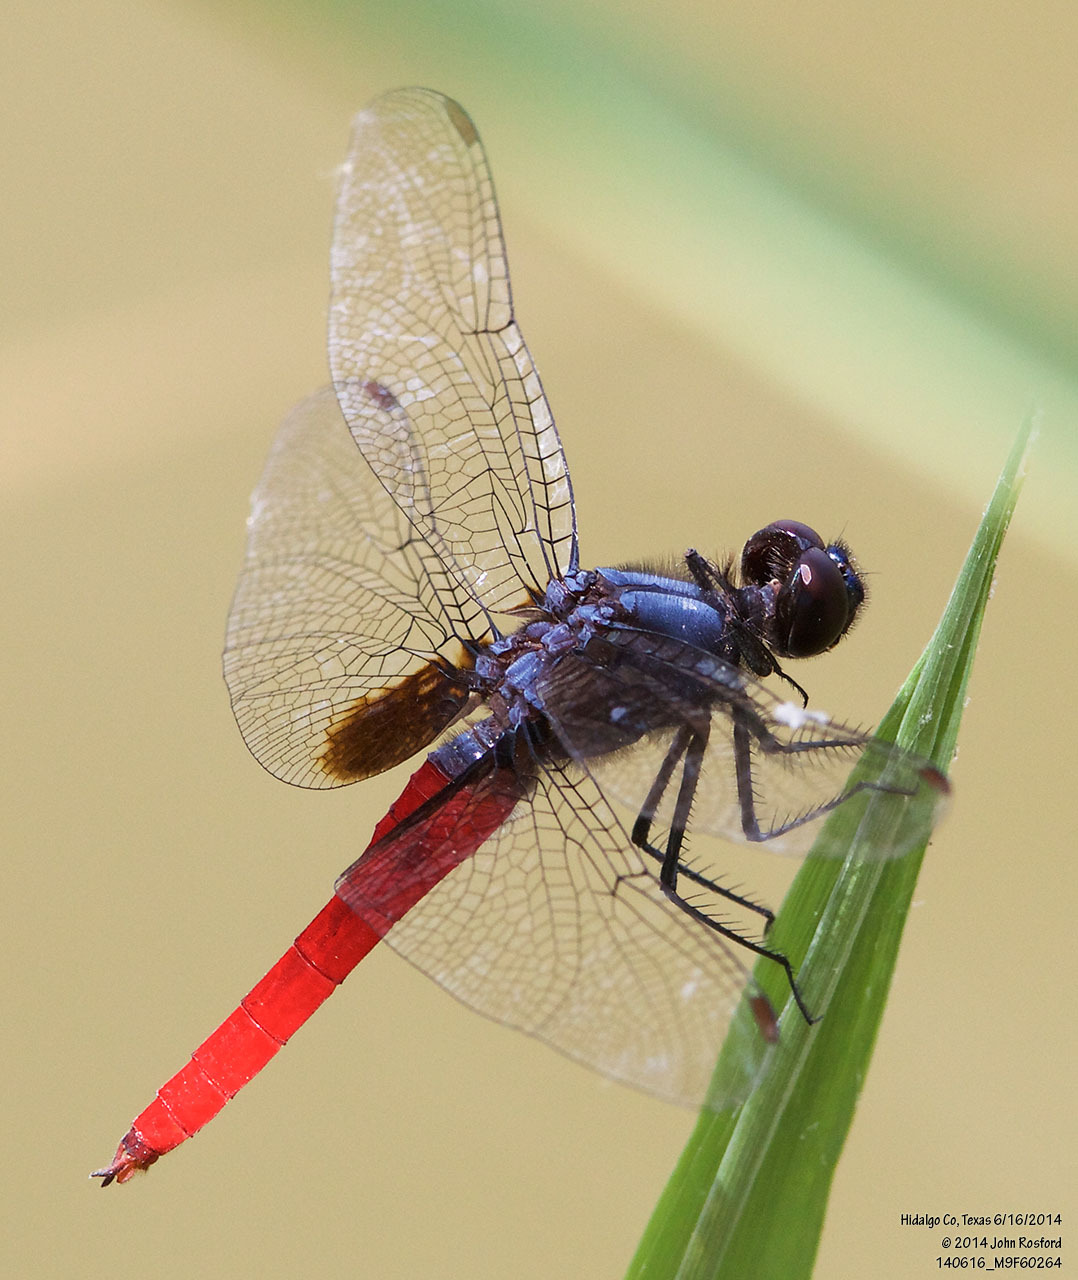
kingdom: Animalia
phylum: Arthropoda
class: Insecta
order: Odonata
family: Libellulidae
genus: Planiplax
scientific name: Planiplax sanguiniventris
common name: Mexican scarlet-tail
